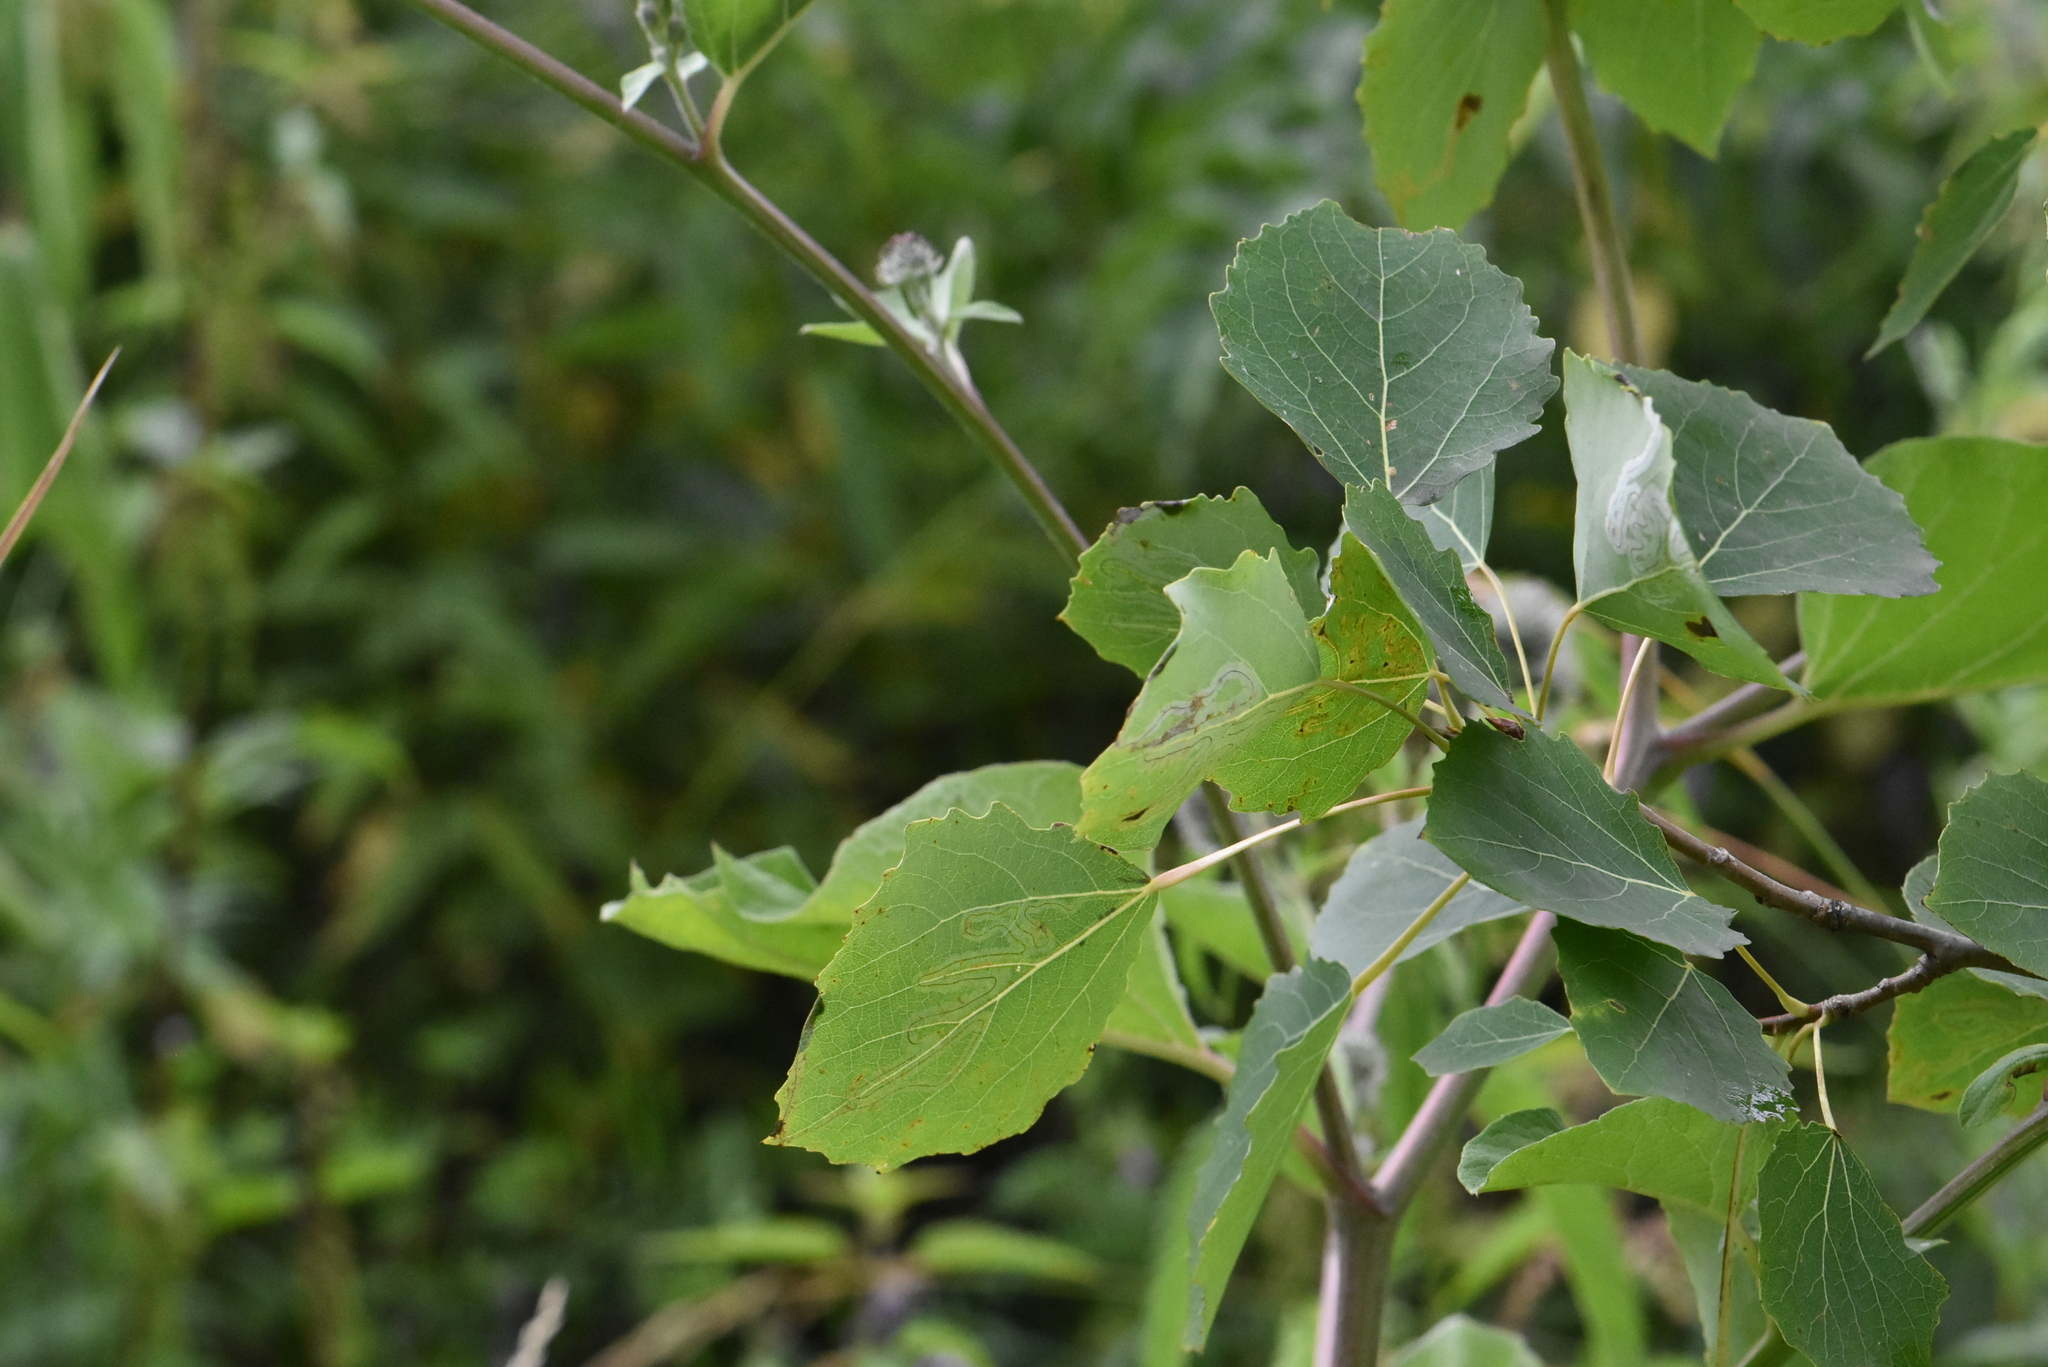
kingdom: Plantae
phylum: Tracheophyta
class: Magnoliopsida
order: Malpighiales
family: Salicaceae
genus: Populus
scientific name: Populus tremula
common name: European aspen
